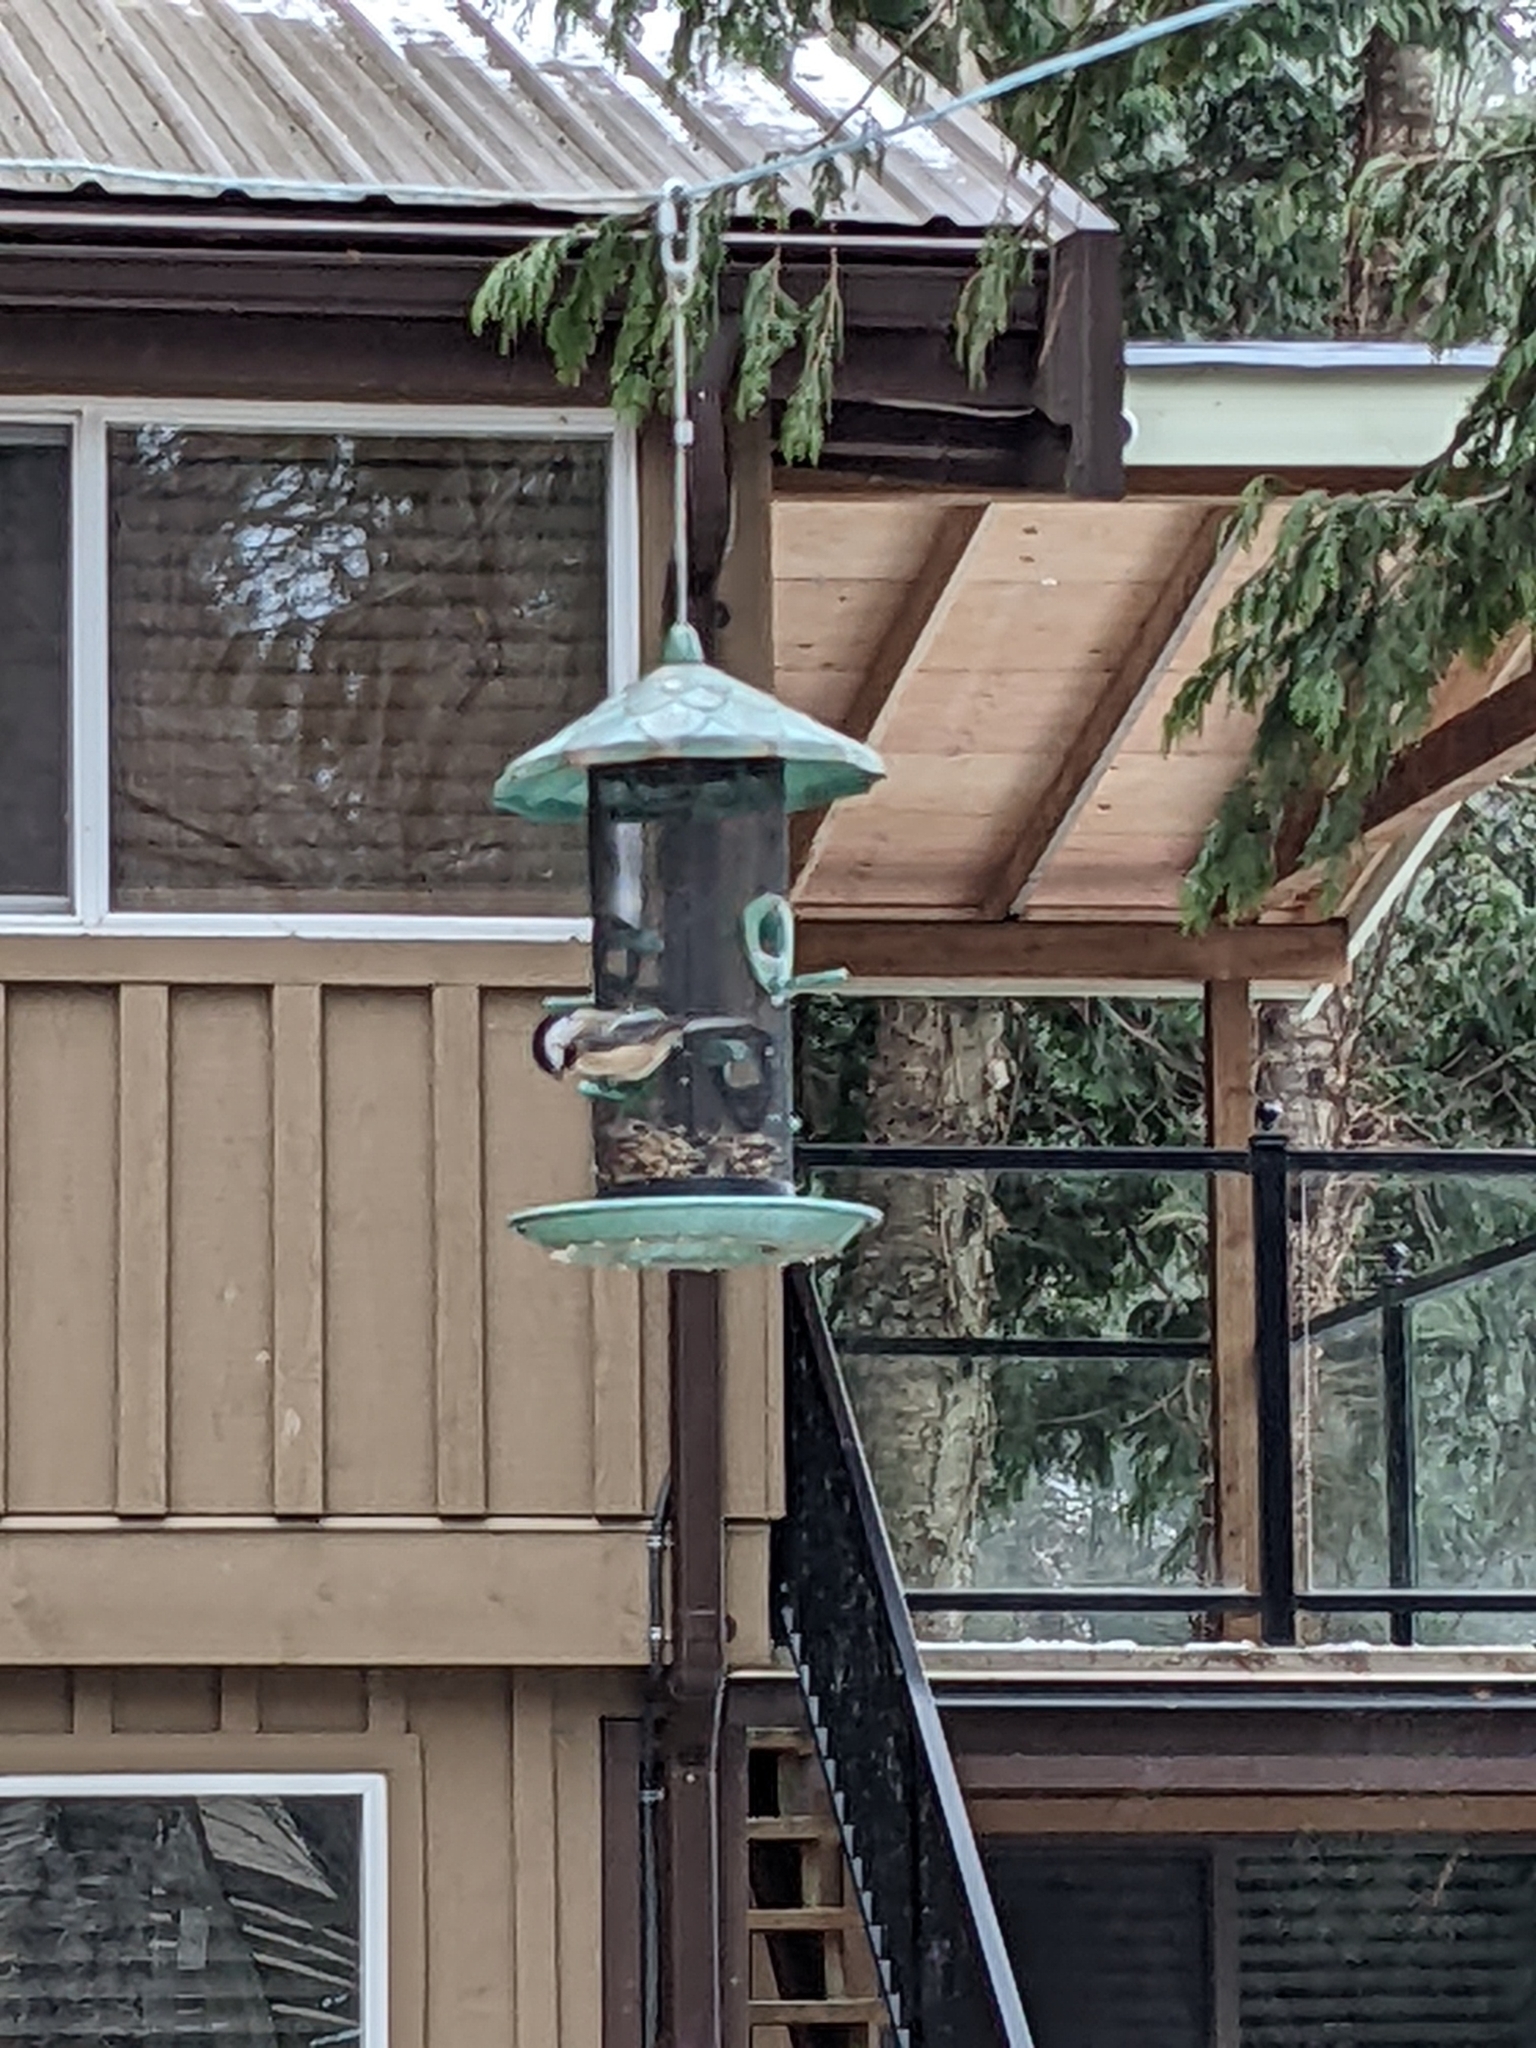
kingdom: Animalia
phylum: Chordata
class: Aves
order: Passeriformes
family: Paridae
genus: Poecile
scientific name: Poecile atricapillus
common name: Black-capped chickadee
